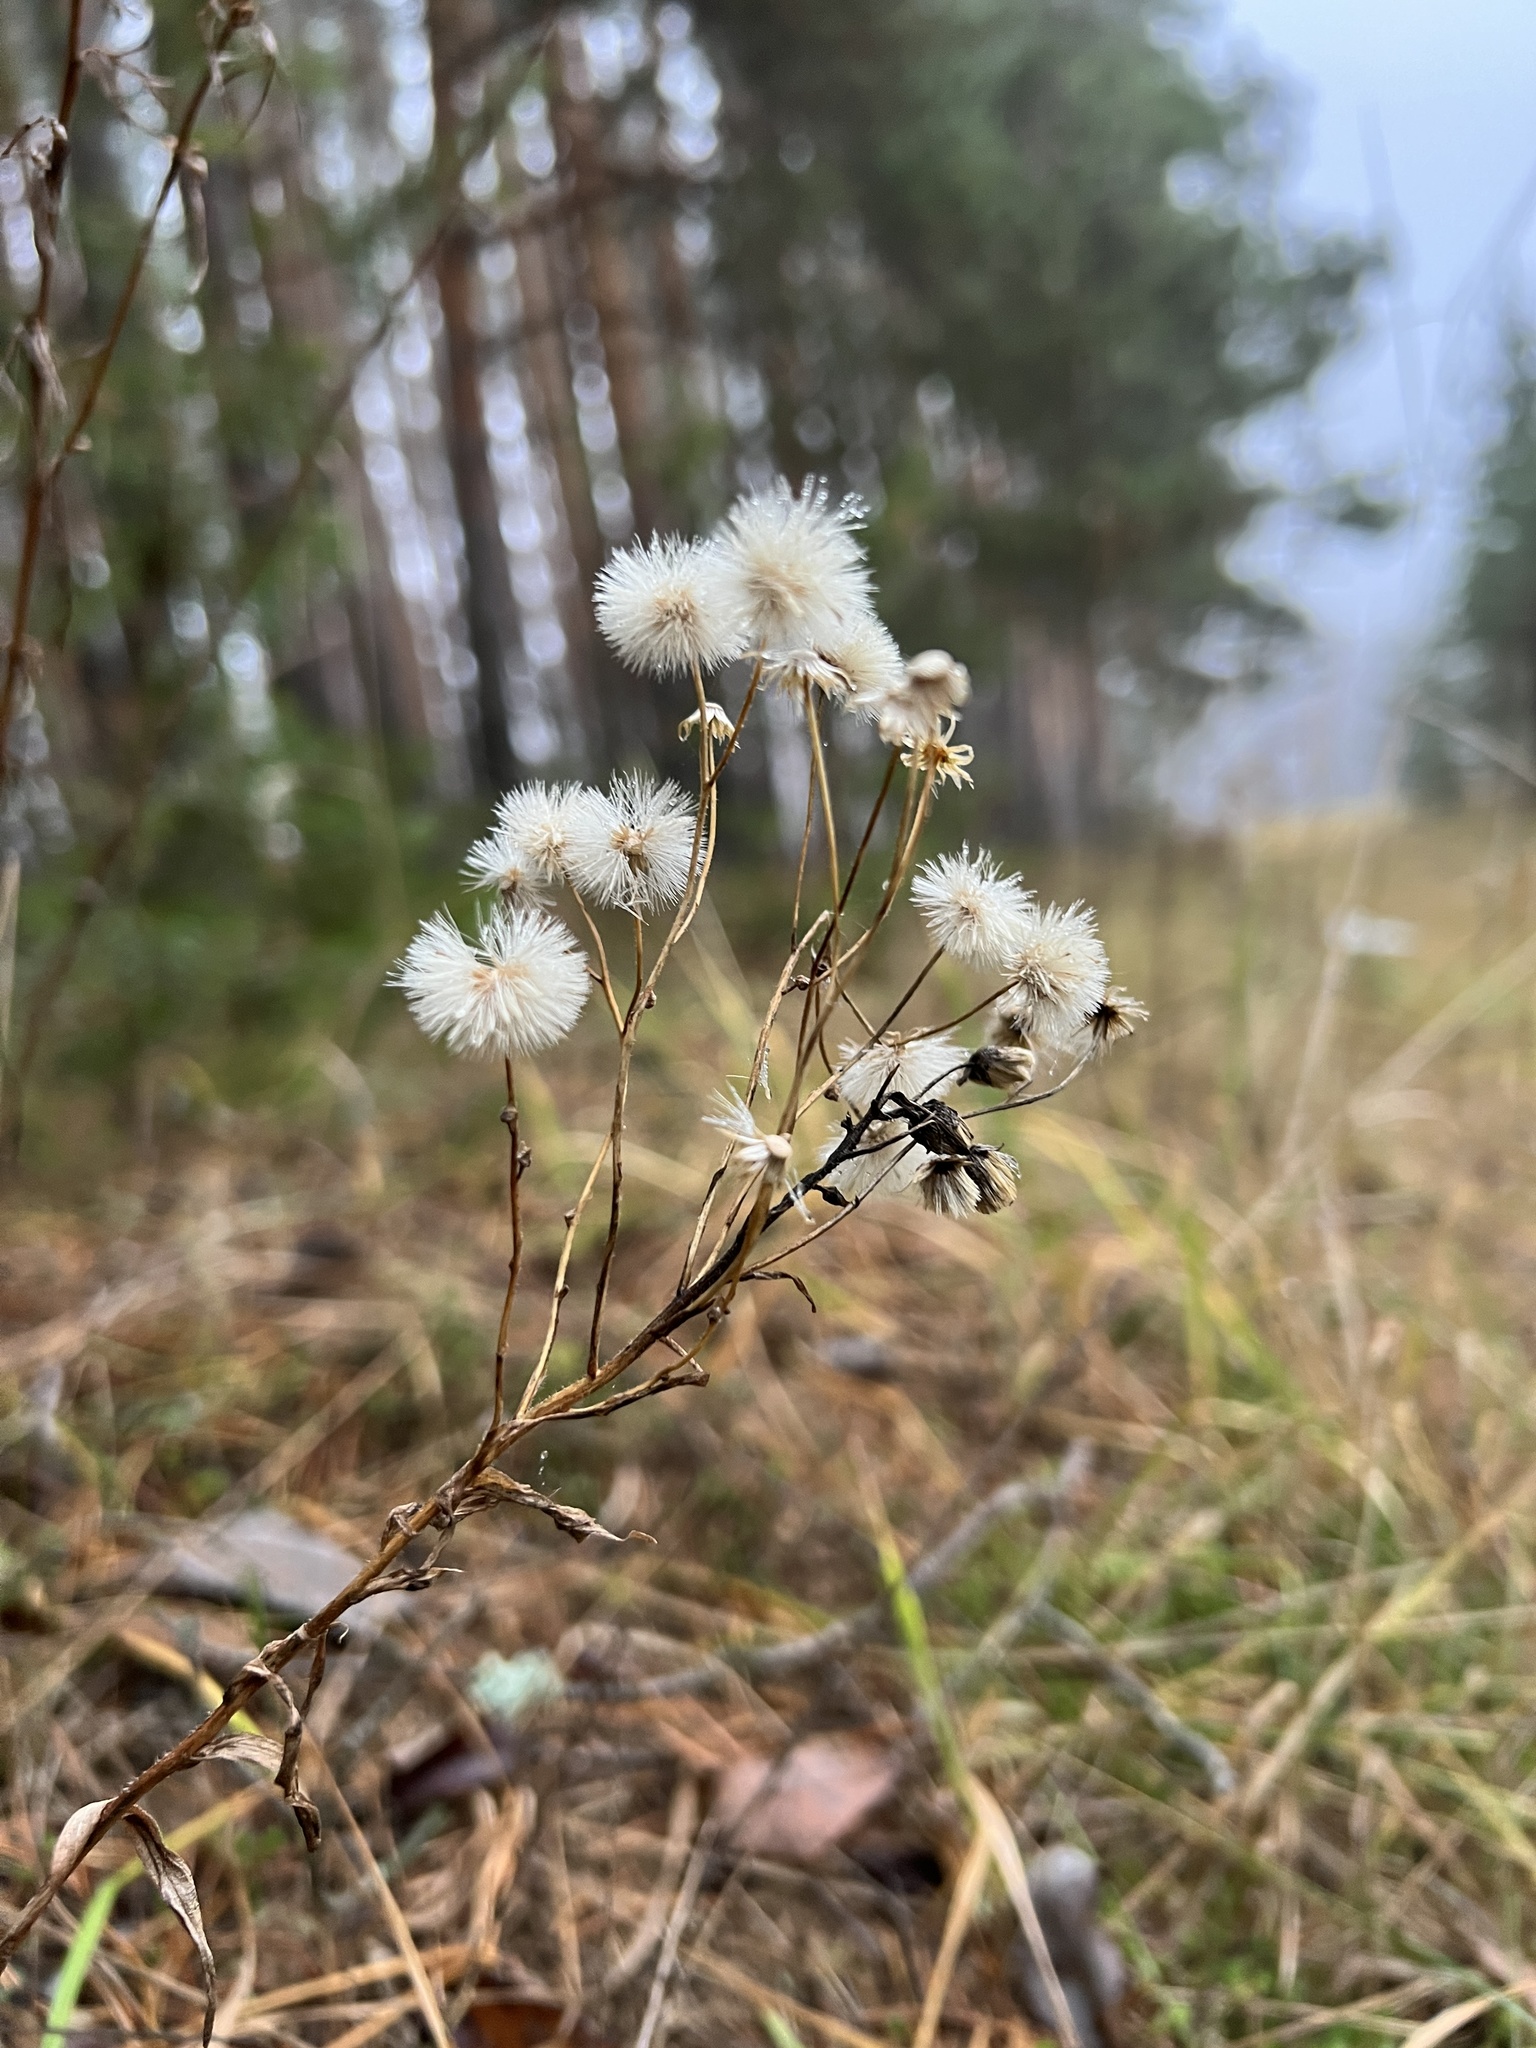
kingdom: Plantae
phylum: Tracheophyta
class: Magnoliopsida
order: Asterales
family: Asteraceae
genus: Hieracium
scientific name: Hieracium umbellatum
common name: Northern hawkweed
